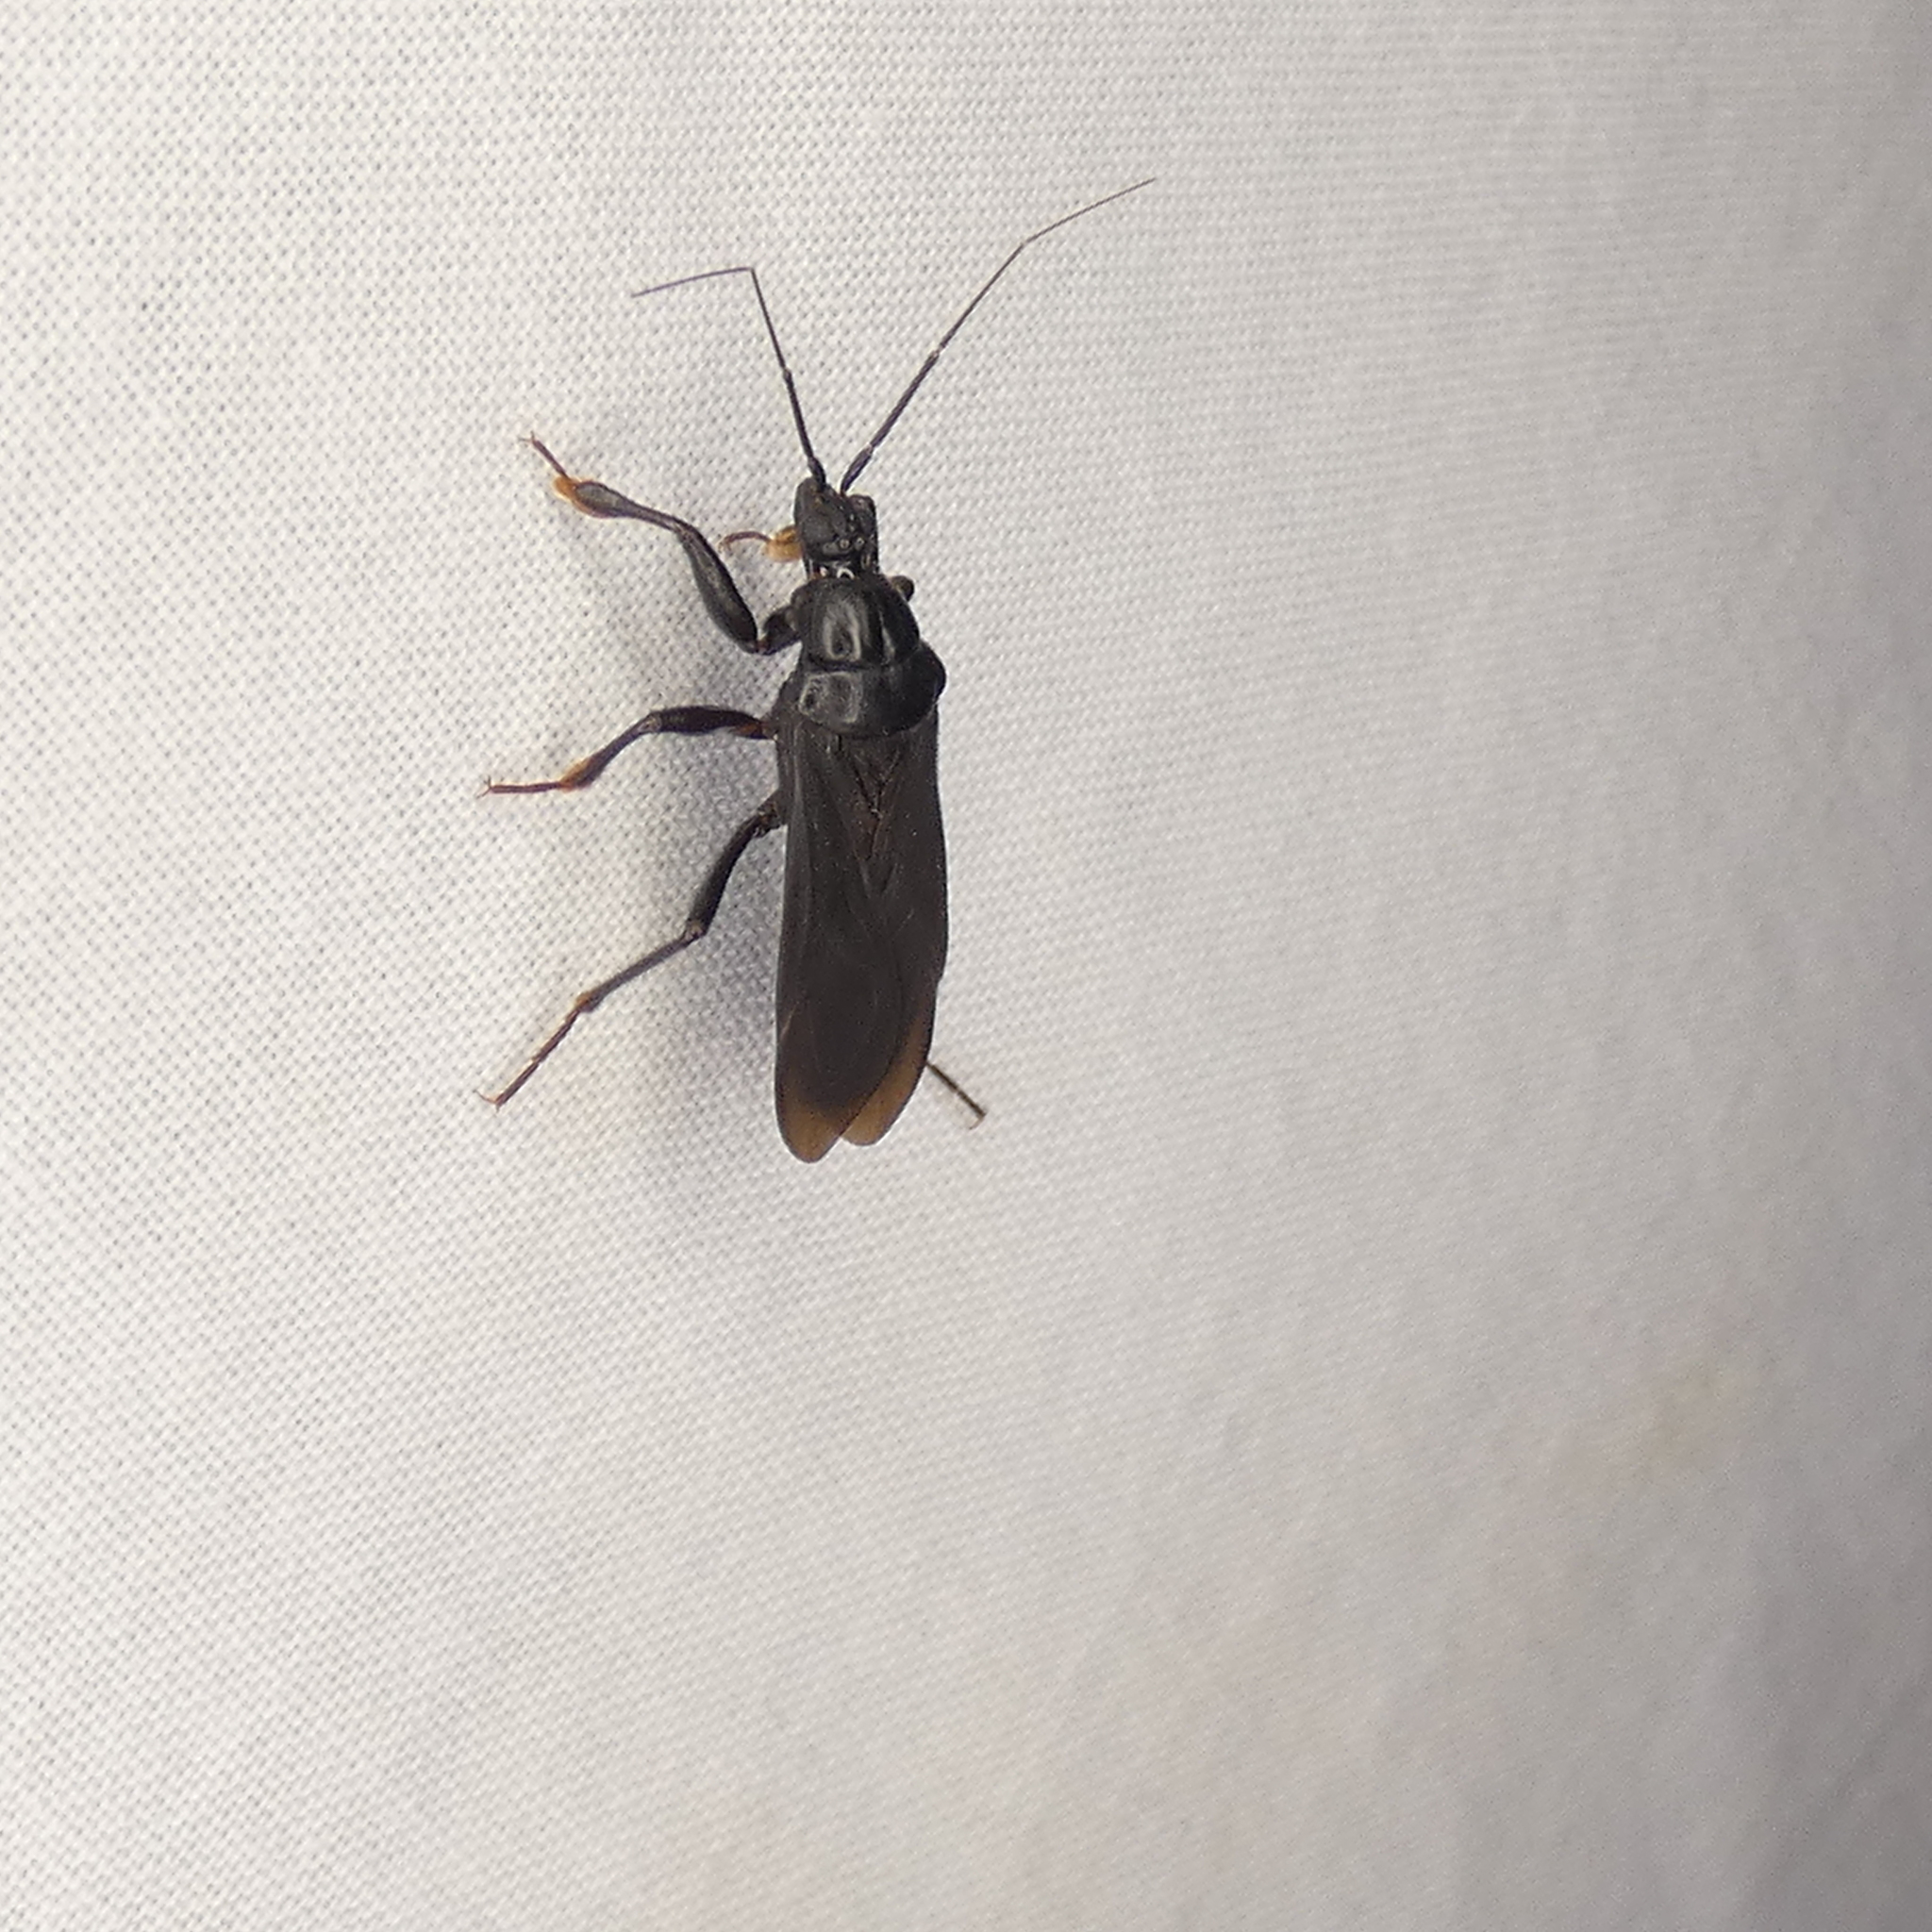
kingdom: Animalia
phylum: Arthropoda
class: Insecta
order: Hemiptera
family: Reduviidae
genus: Melanolestes
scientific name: Melanolestes picipes
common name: Assassin bug
